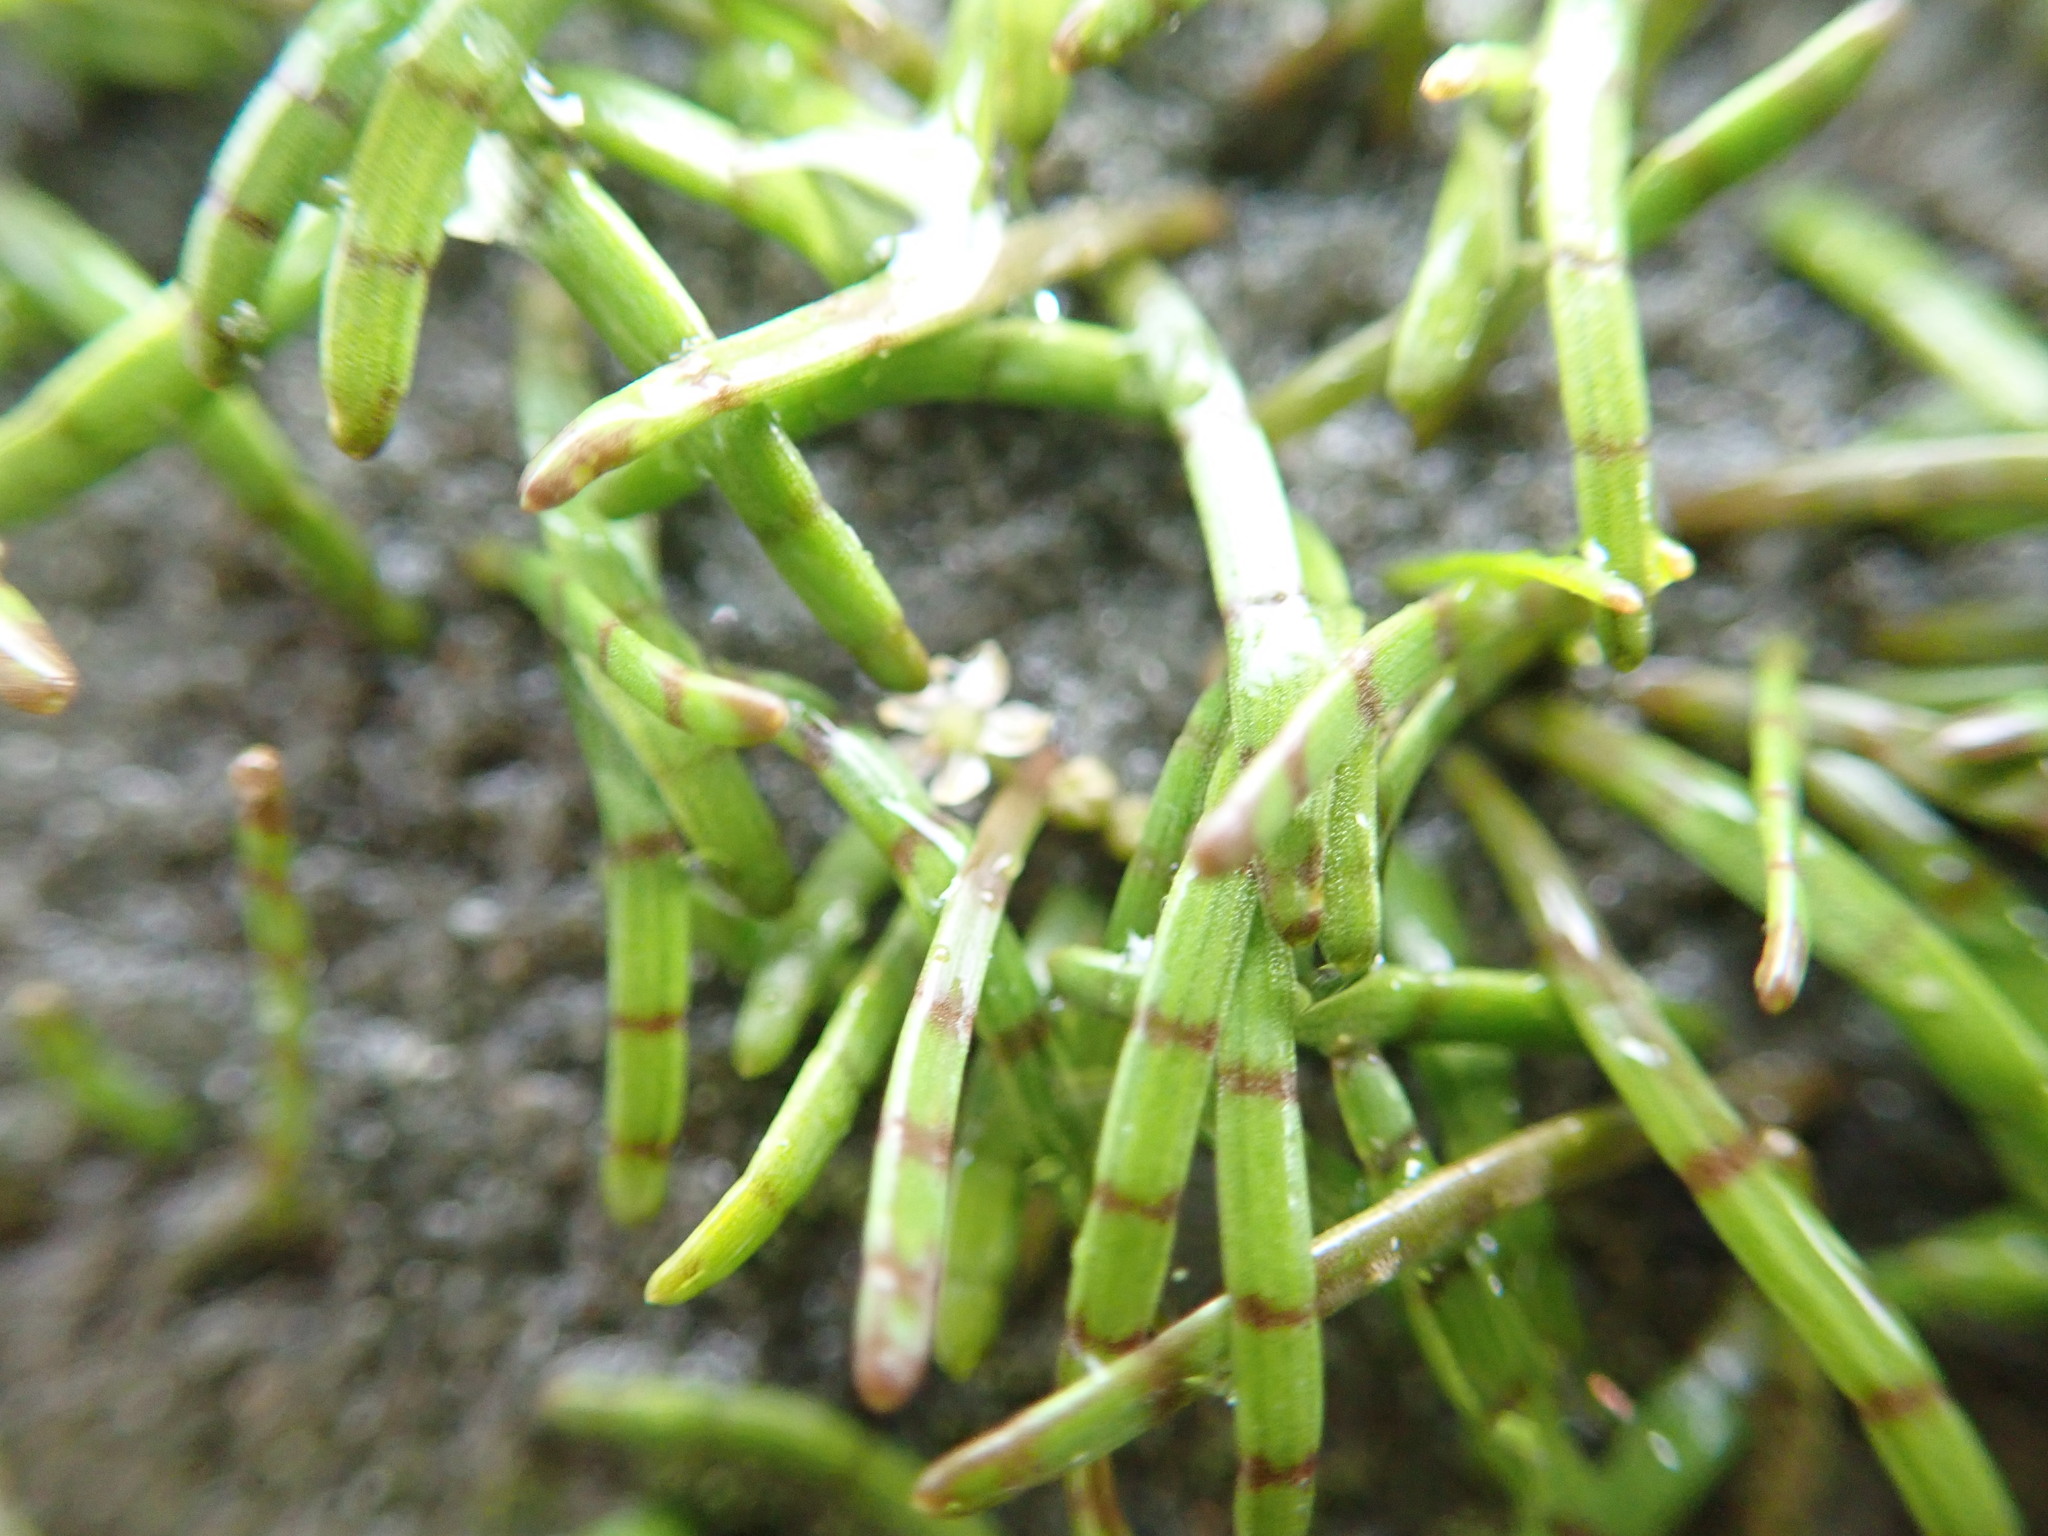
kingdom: Plantae
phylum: Tracheophyta
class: Magnoliopsida
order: Apiales
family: Apiaceae
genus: Lilaeopsis
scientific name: Lilaeopsis novae-zelandiae
